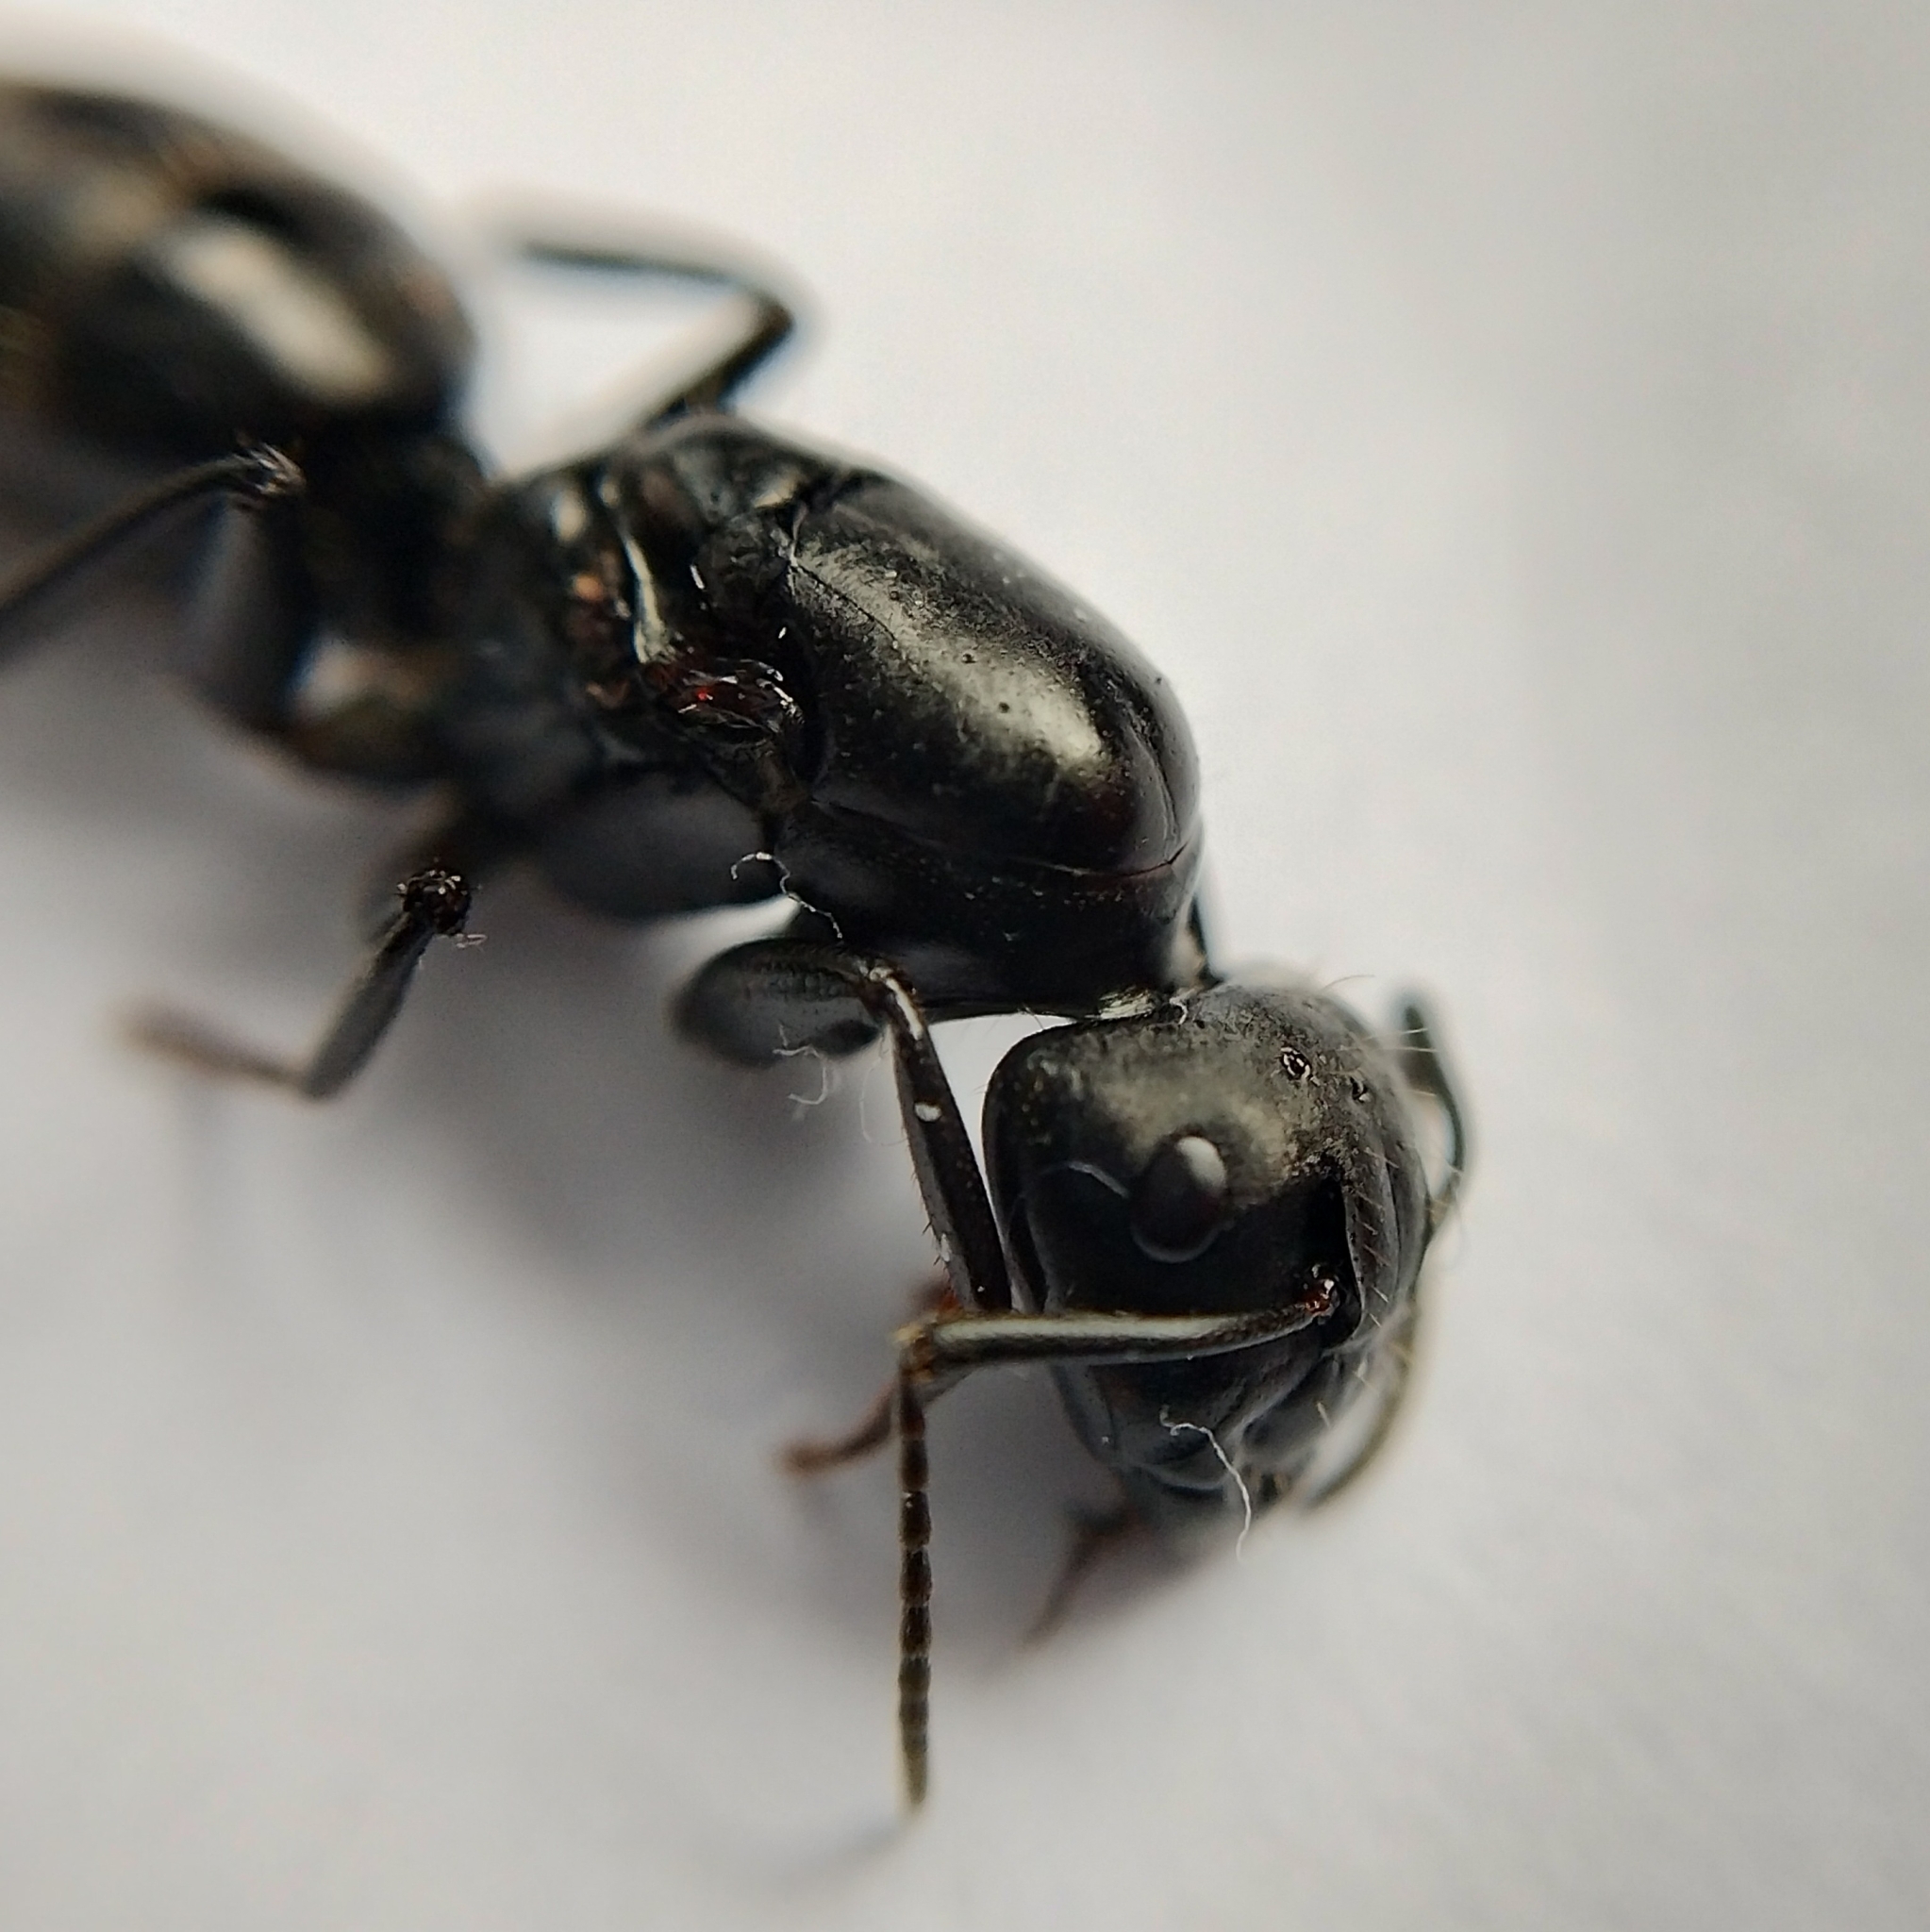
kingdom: Animalia
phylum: Arthropoda
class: Insecta
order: Hymenoptera
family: Formicidae
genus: Camponotus
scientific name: Camponotus vagus
